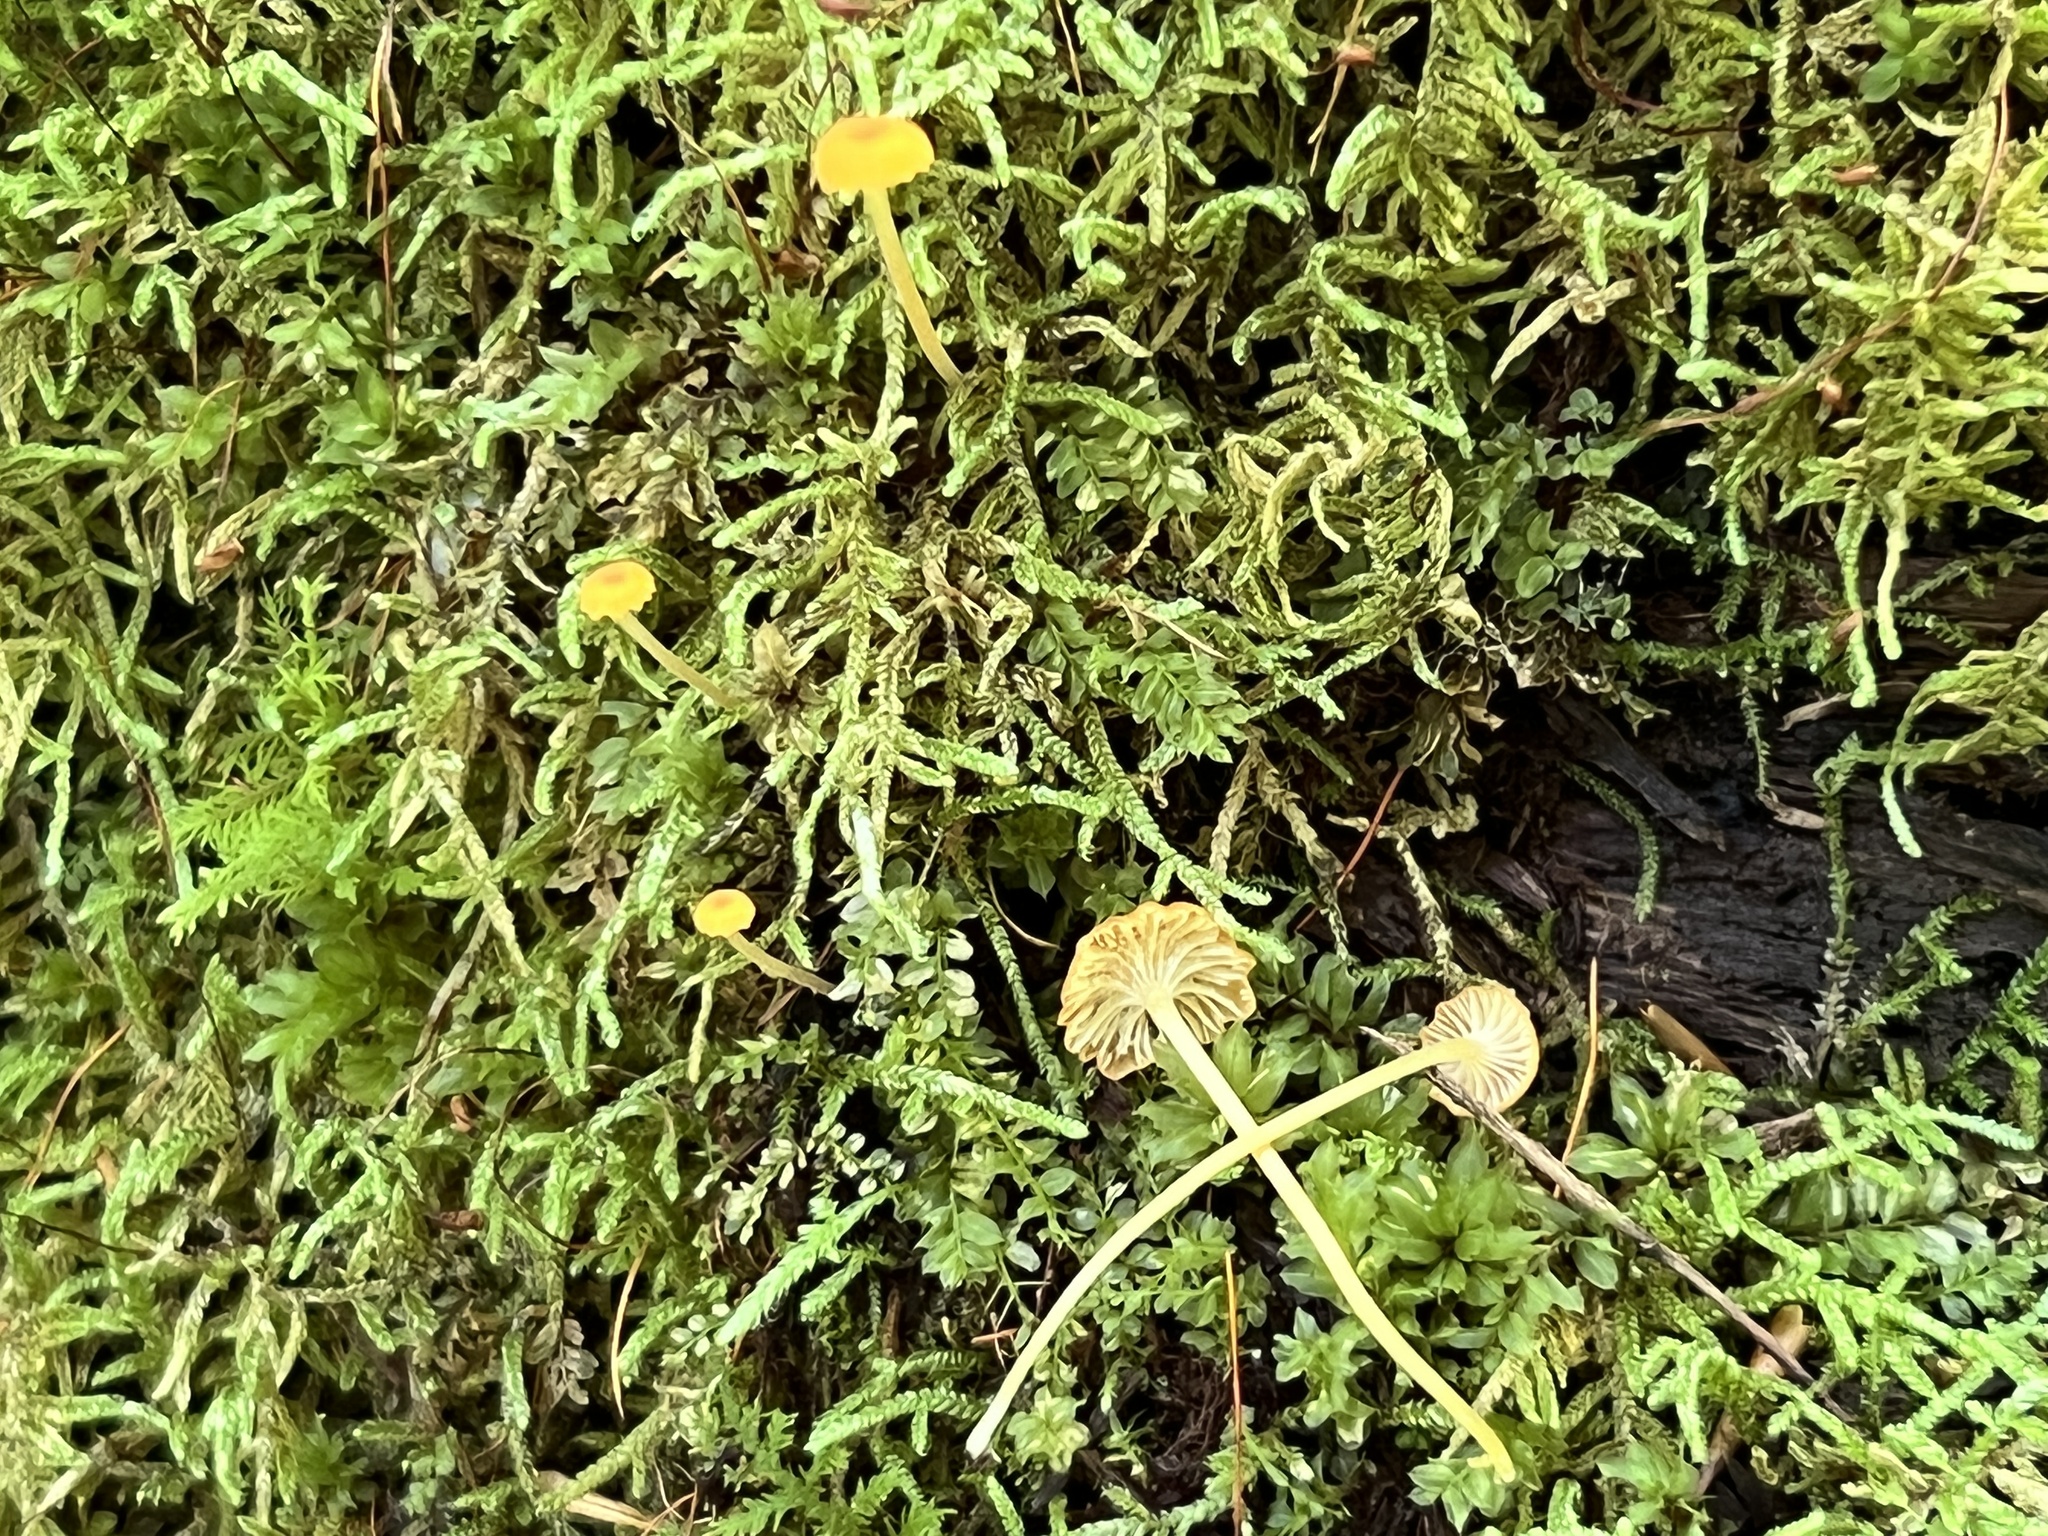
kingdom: Fungi
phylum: Basidiomycota
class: Agaricomycetes
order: Hymenochaetales
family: Rickenellaceae
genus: Rickenella
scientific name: Rickenella fibula
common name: Orange mosscap
